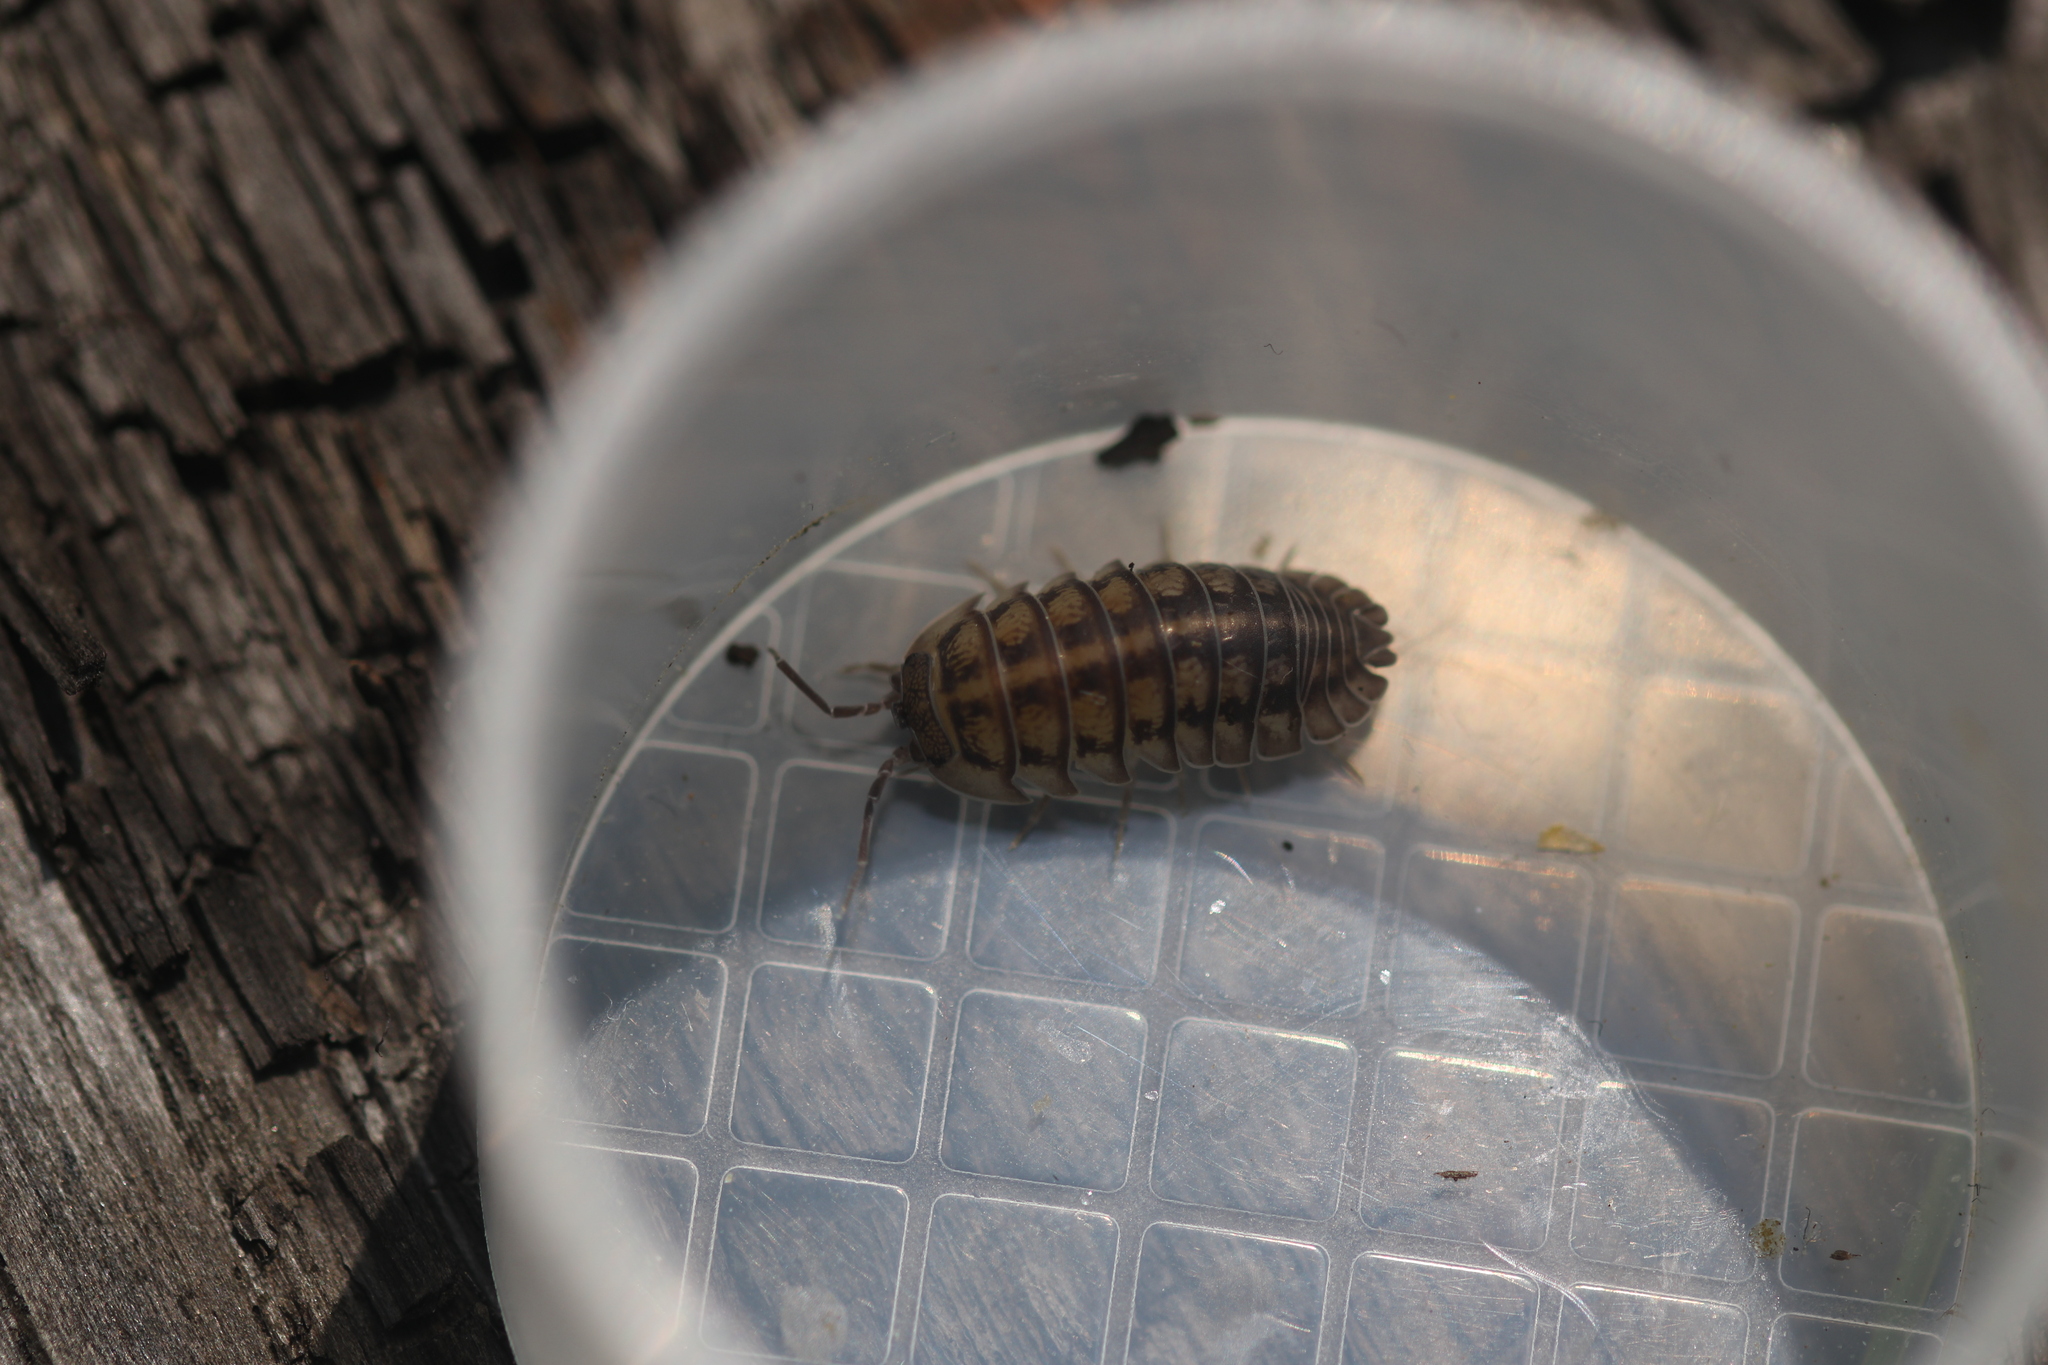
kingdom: Animalia
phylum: Arthropoda
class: Malacostraca
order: Isopoda
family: Armadillidiidae
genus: Armadillidium
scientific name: Armadillidium nasatum
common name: Isopod
